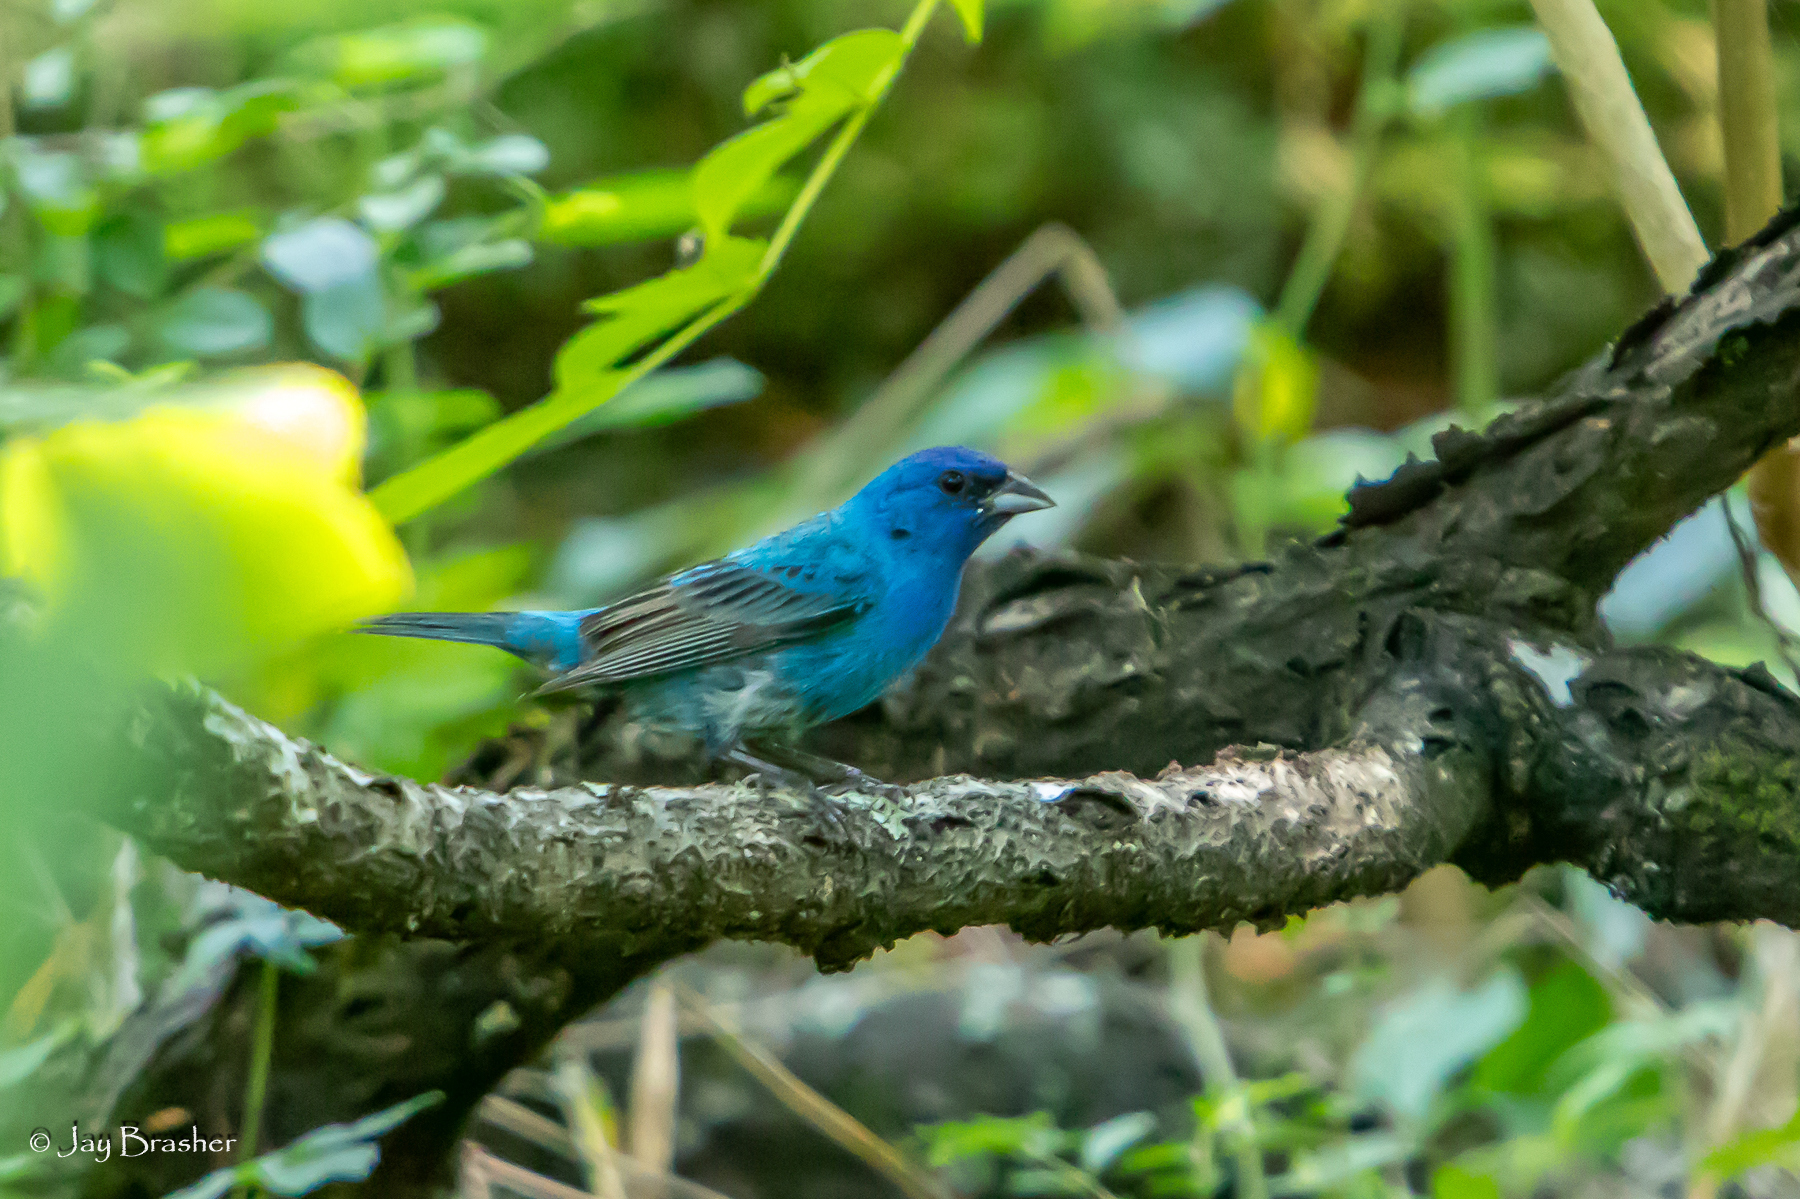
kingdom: Animalia
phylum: Chordata
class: Aves
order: Passeriformes
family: Cardinalidae
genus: Passerina
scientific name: Passerina cyanea
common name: Indigo bunting
